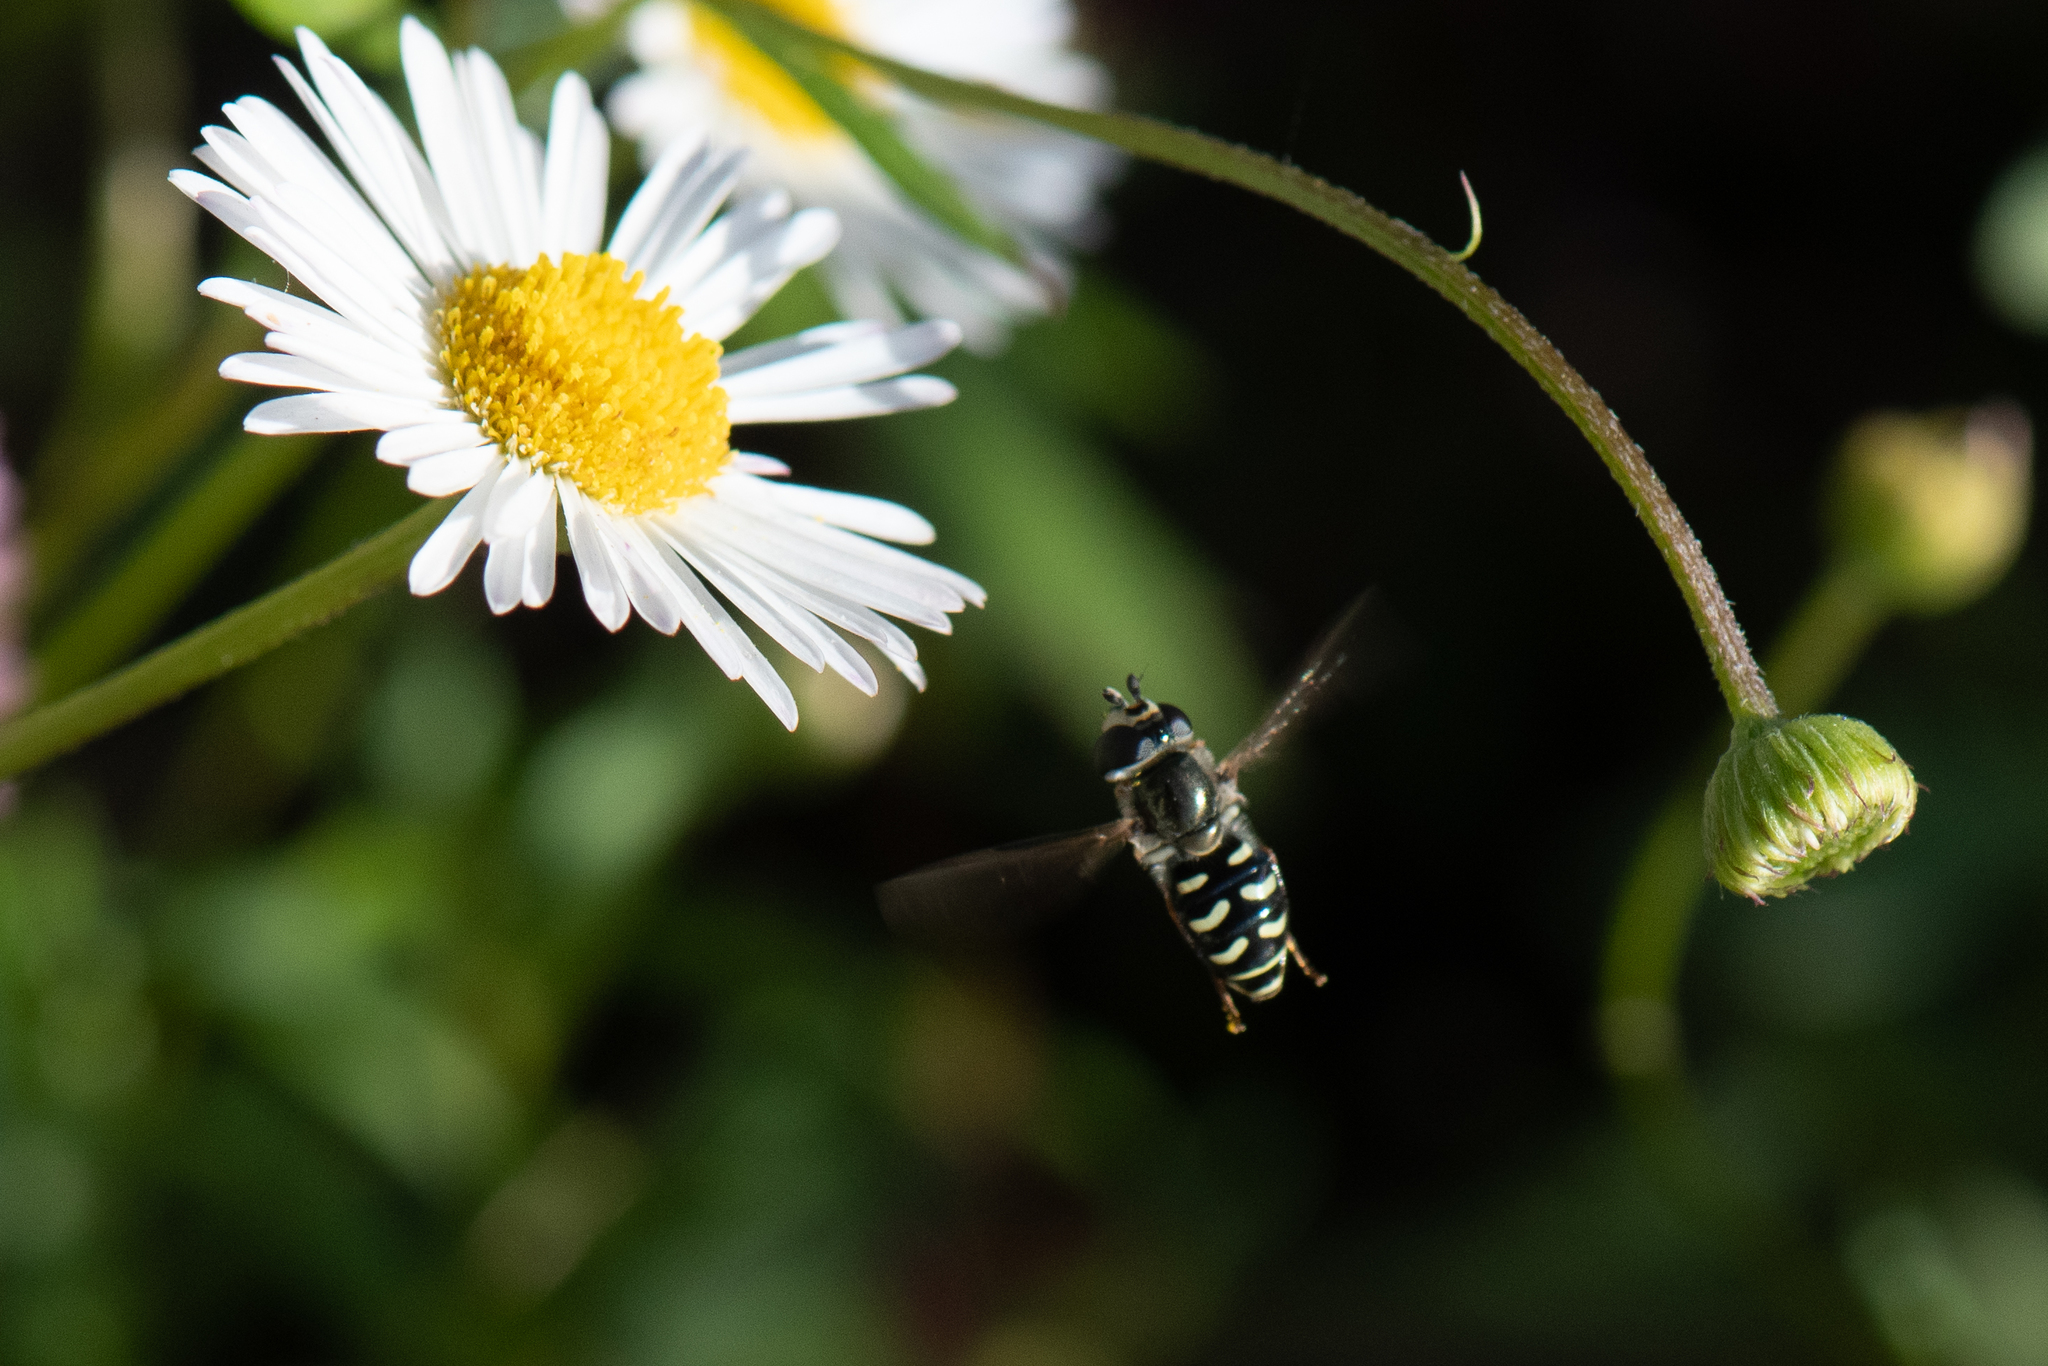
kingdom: Animalia
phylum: Arthropoda
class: Insecta
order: Diptera
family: Syrphidae
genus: Eupeodes
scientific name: Eupeodes volucris
